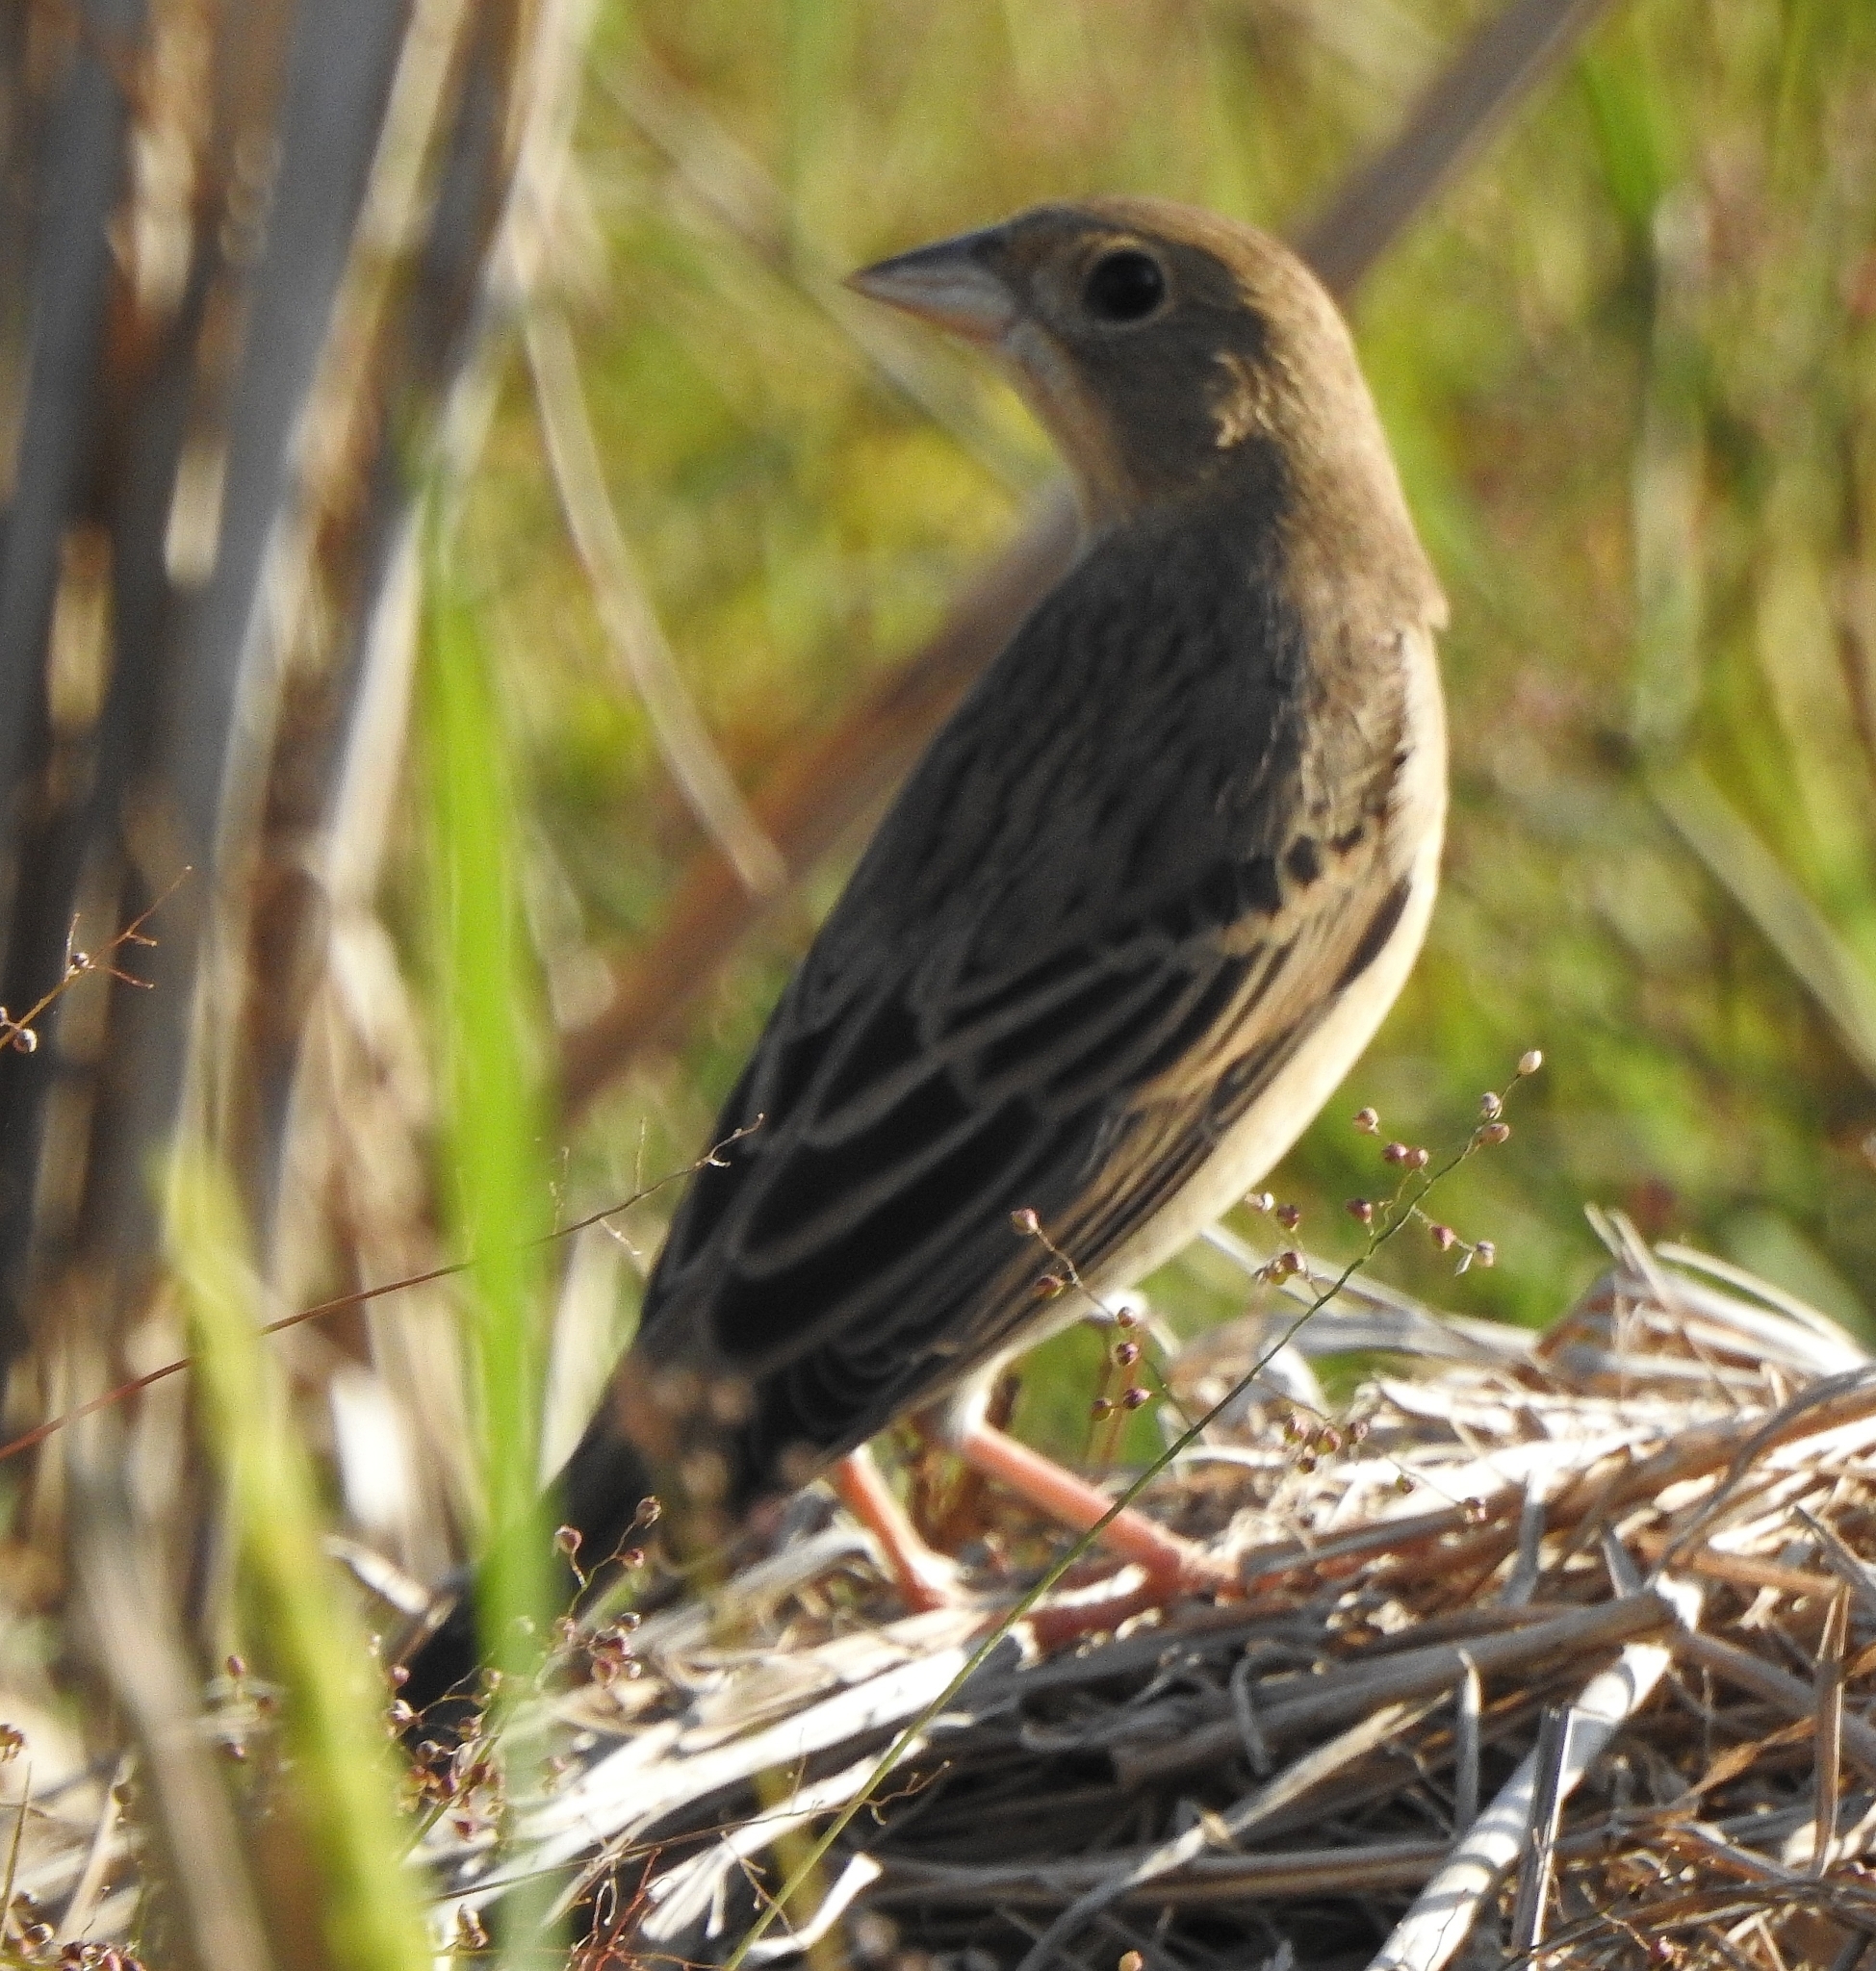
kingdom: Animalia
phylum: Chordata
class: Aves
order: Passeriformes
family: Emberizidae
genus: Emberiza
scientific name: Emberiza bruniceps
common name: Red-headed bunting
